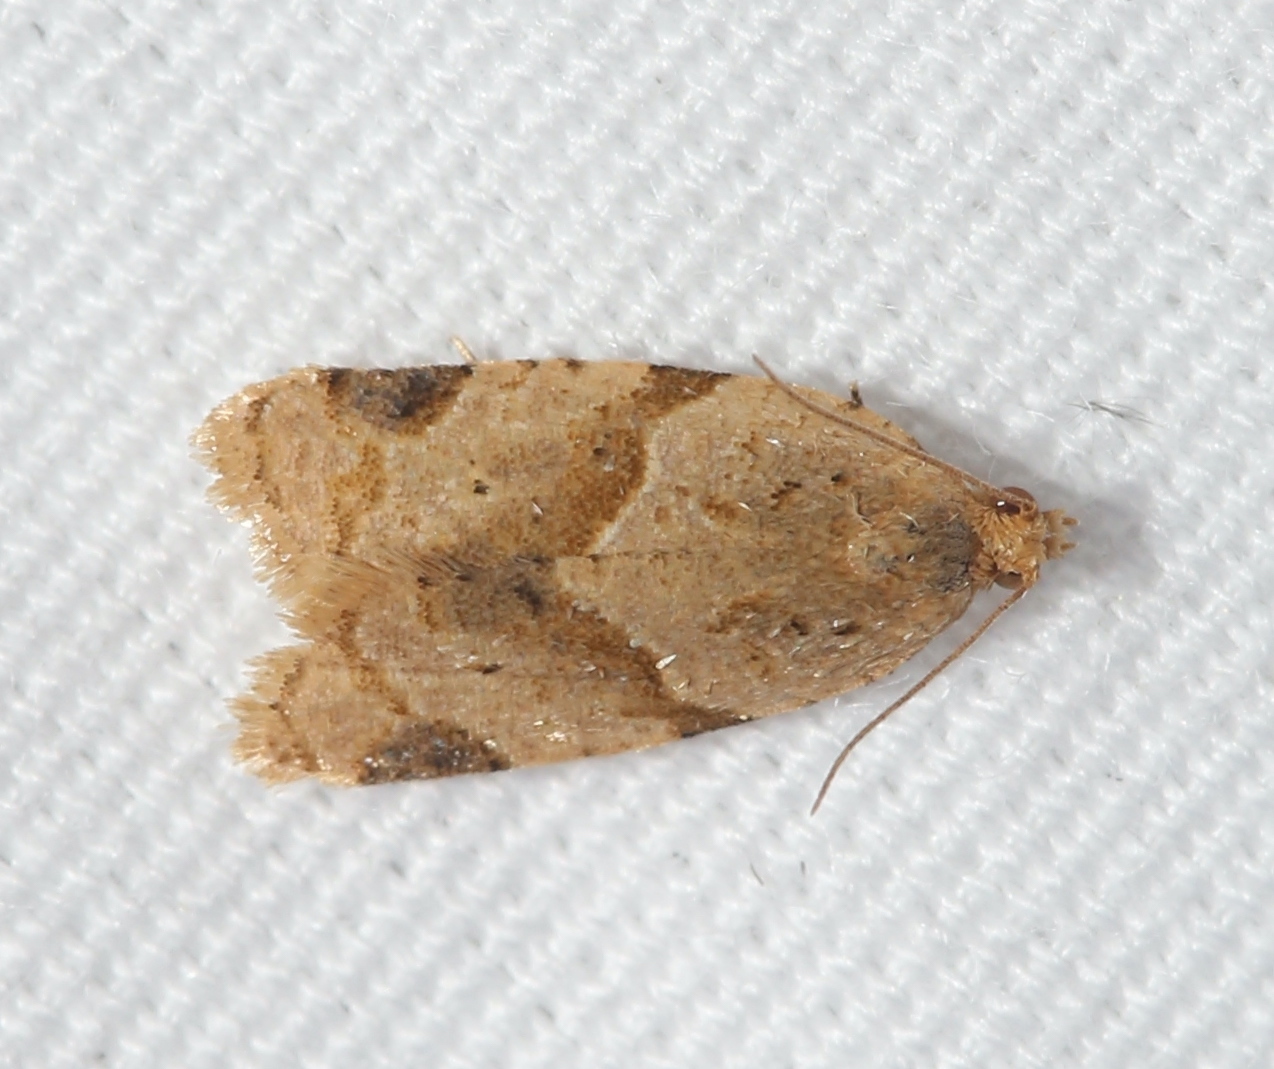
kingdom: Animalia
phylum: Arthropoda
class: Insecta
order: Lepidoptera
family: Tortricidae
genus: Clepsis
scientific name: Clepsis peritana
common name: Garden tortrix
